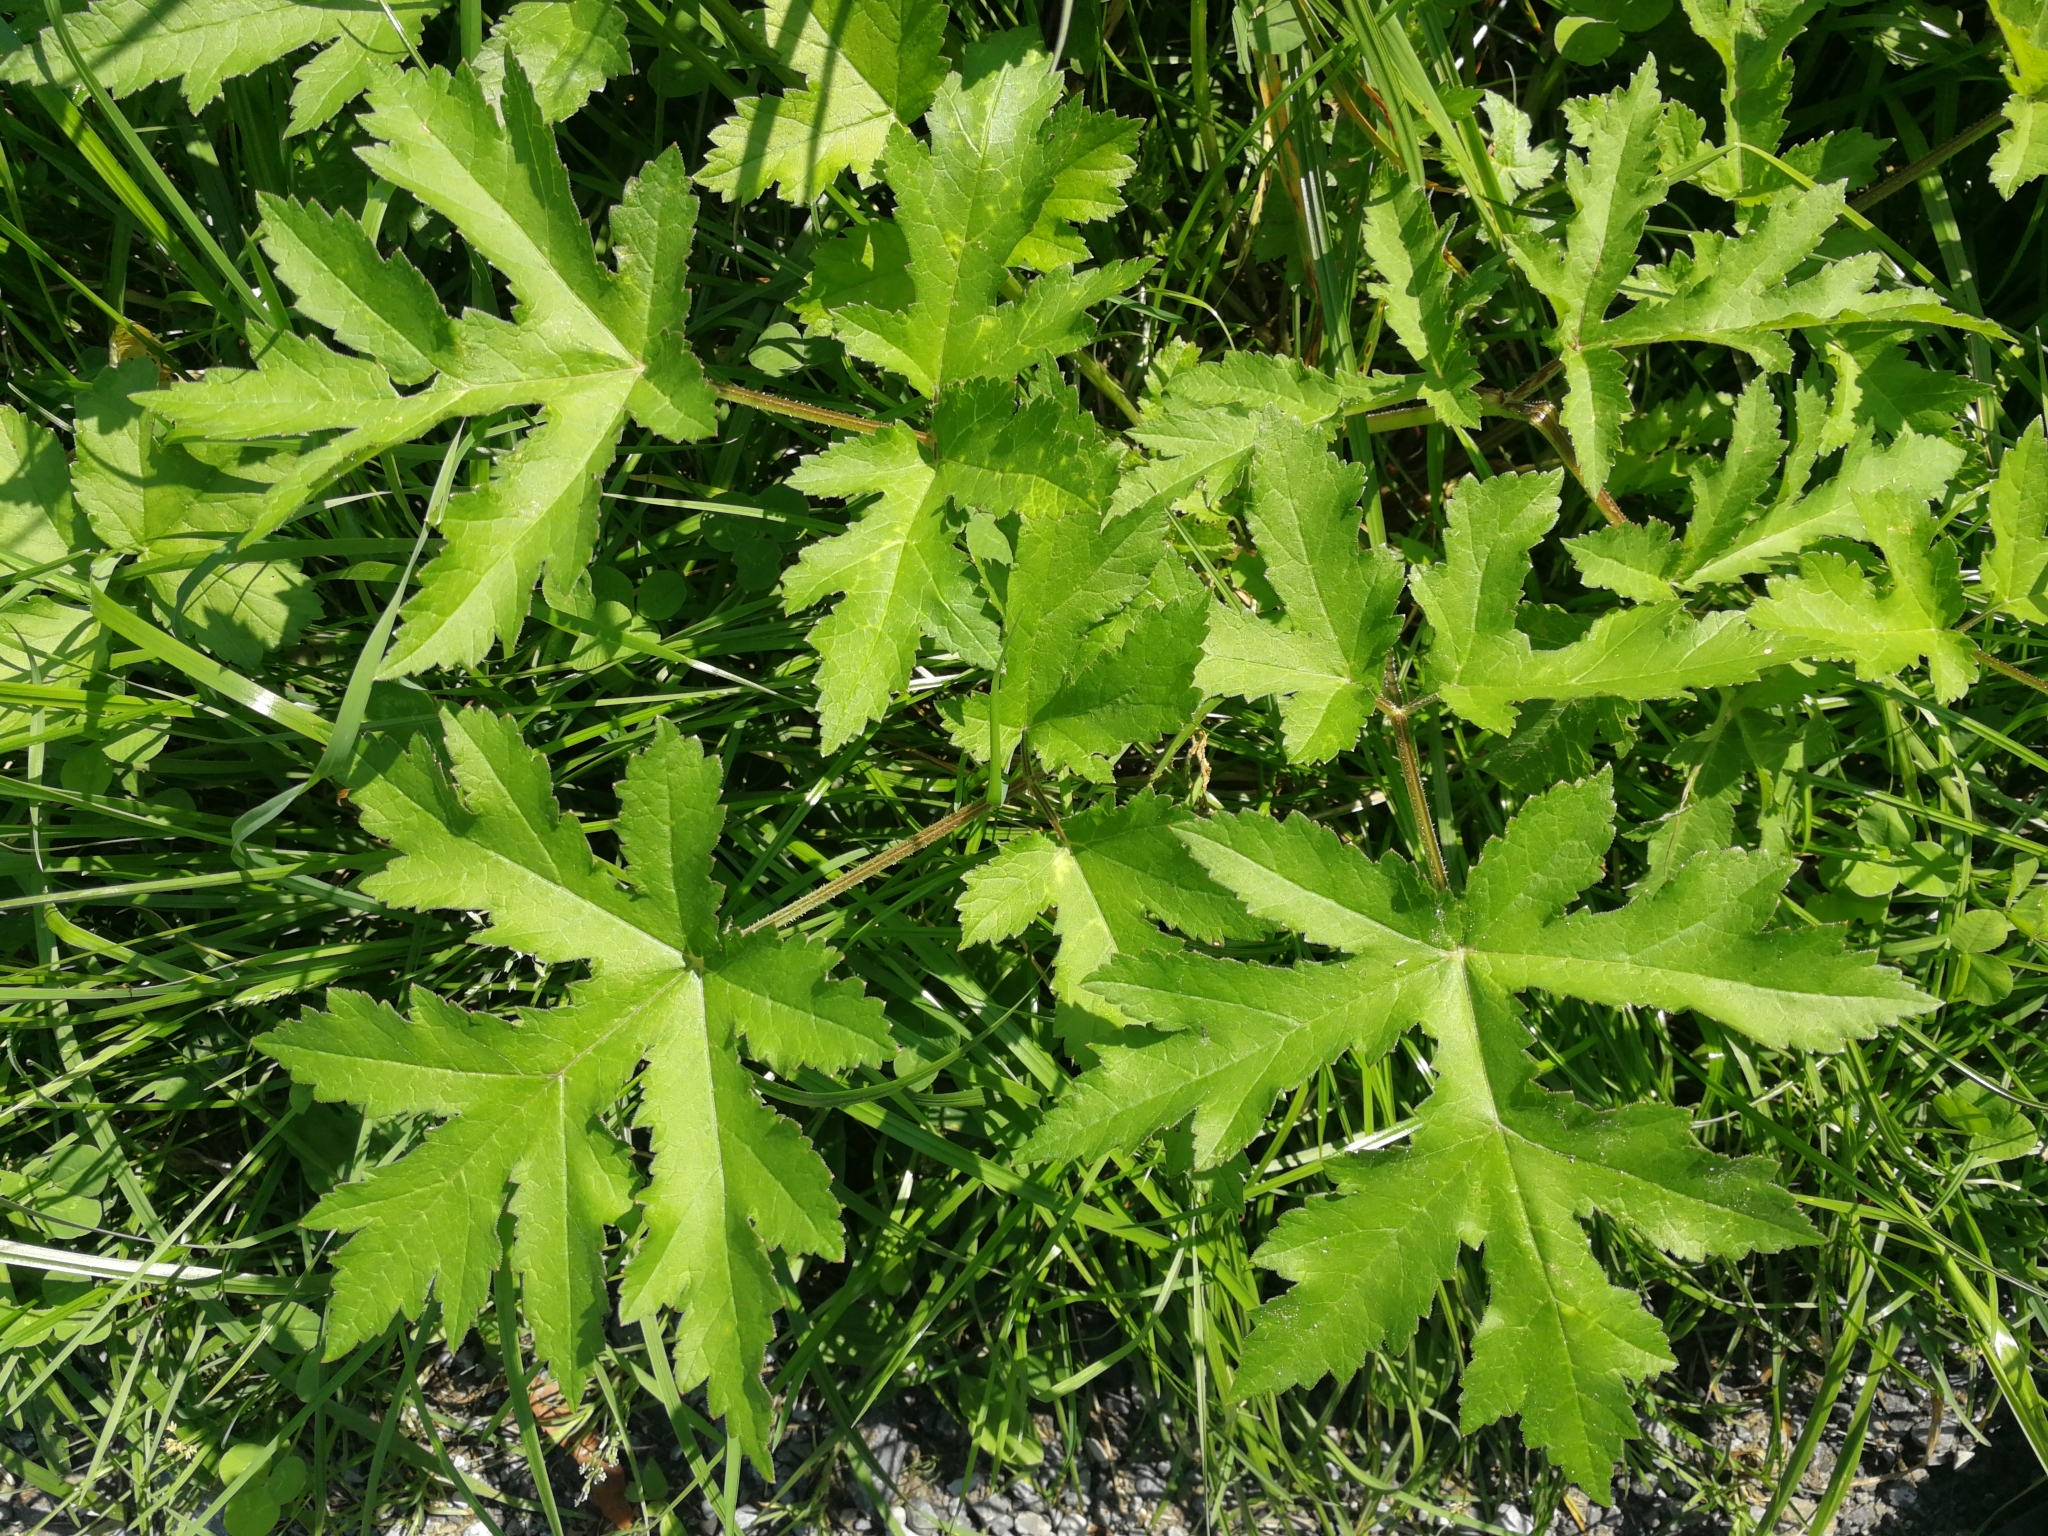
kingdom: Plantae
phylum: Tracheophyta
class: Magnoliopsida
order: Apiales
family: Apiaceae
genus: Heracleum
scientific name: Heracleum sphondylium
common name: Hogweed
